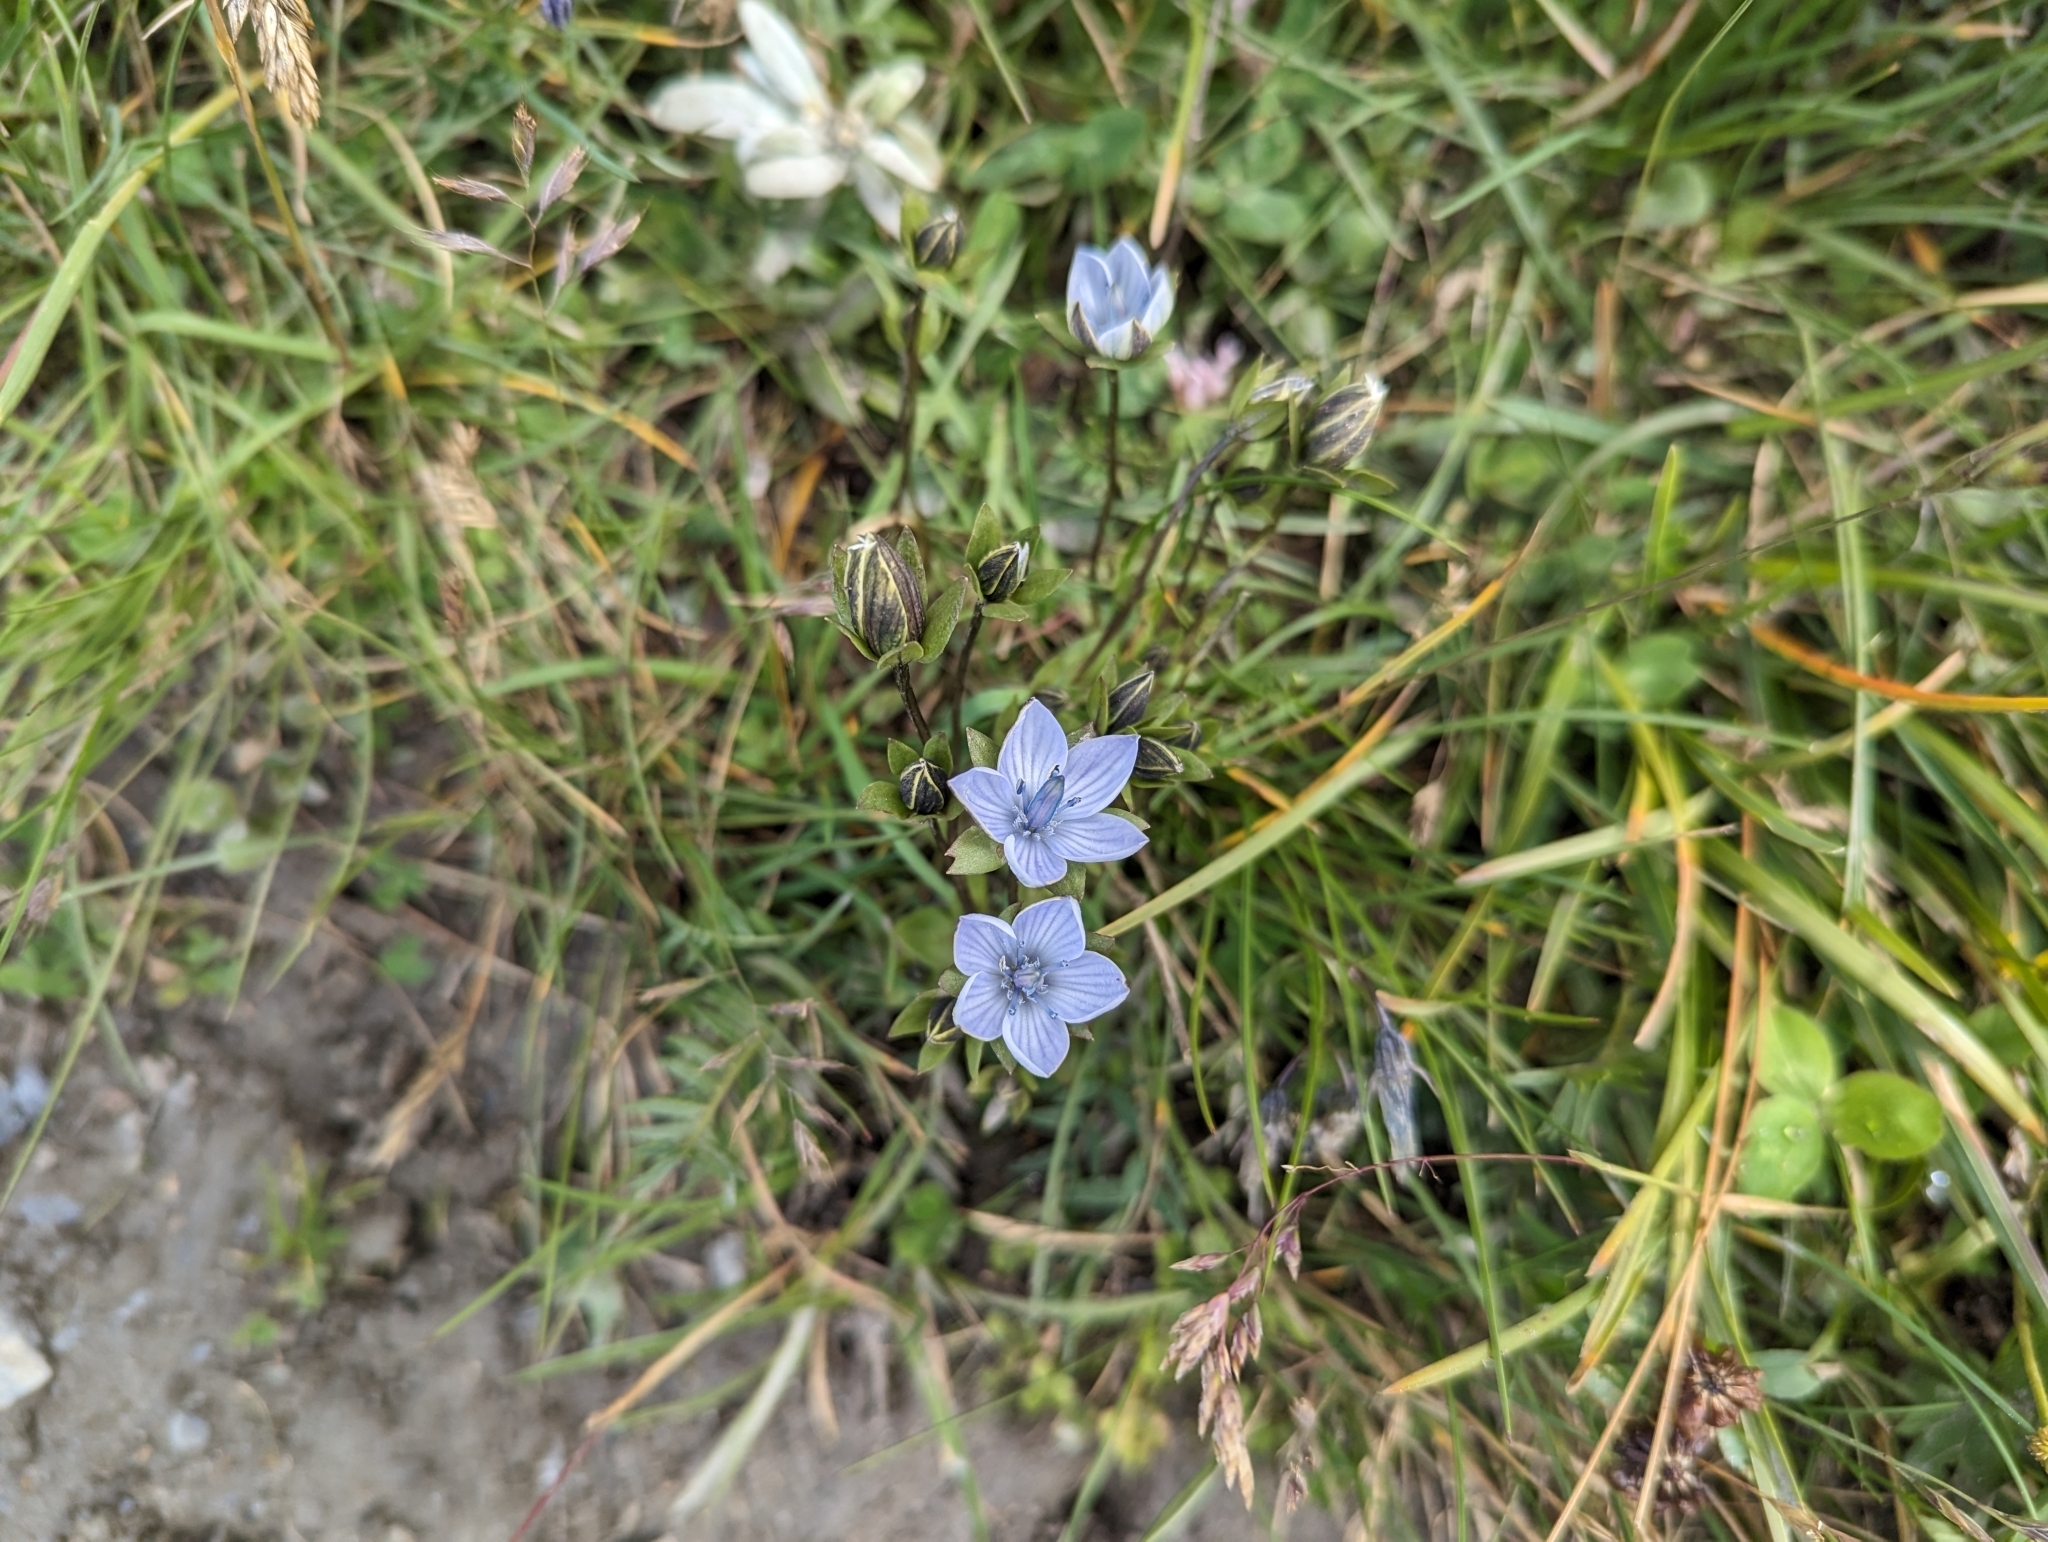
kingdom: Plantae
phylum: Tracheophyta
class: Magnoliopsida
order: Gentianales
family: Gentianaceae
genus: Lomatogonium
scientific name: Lomatogonium carinthiacum
